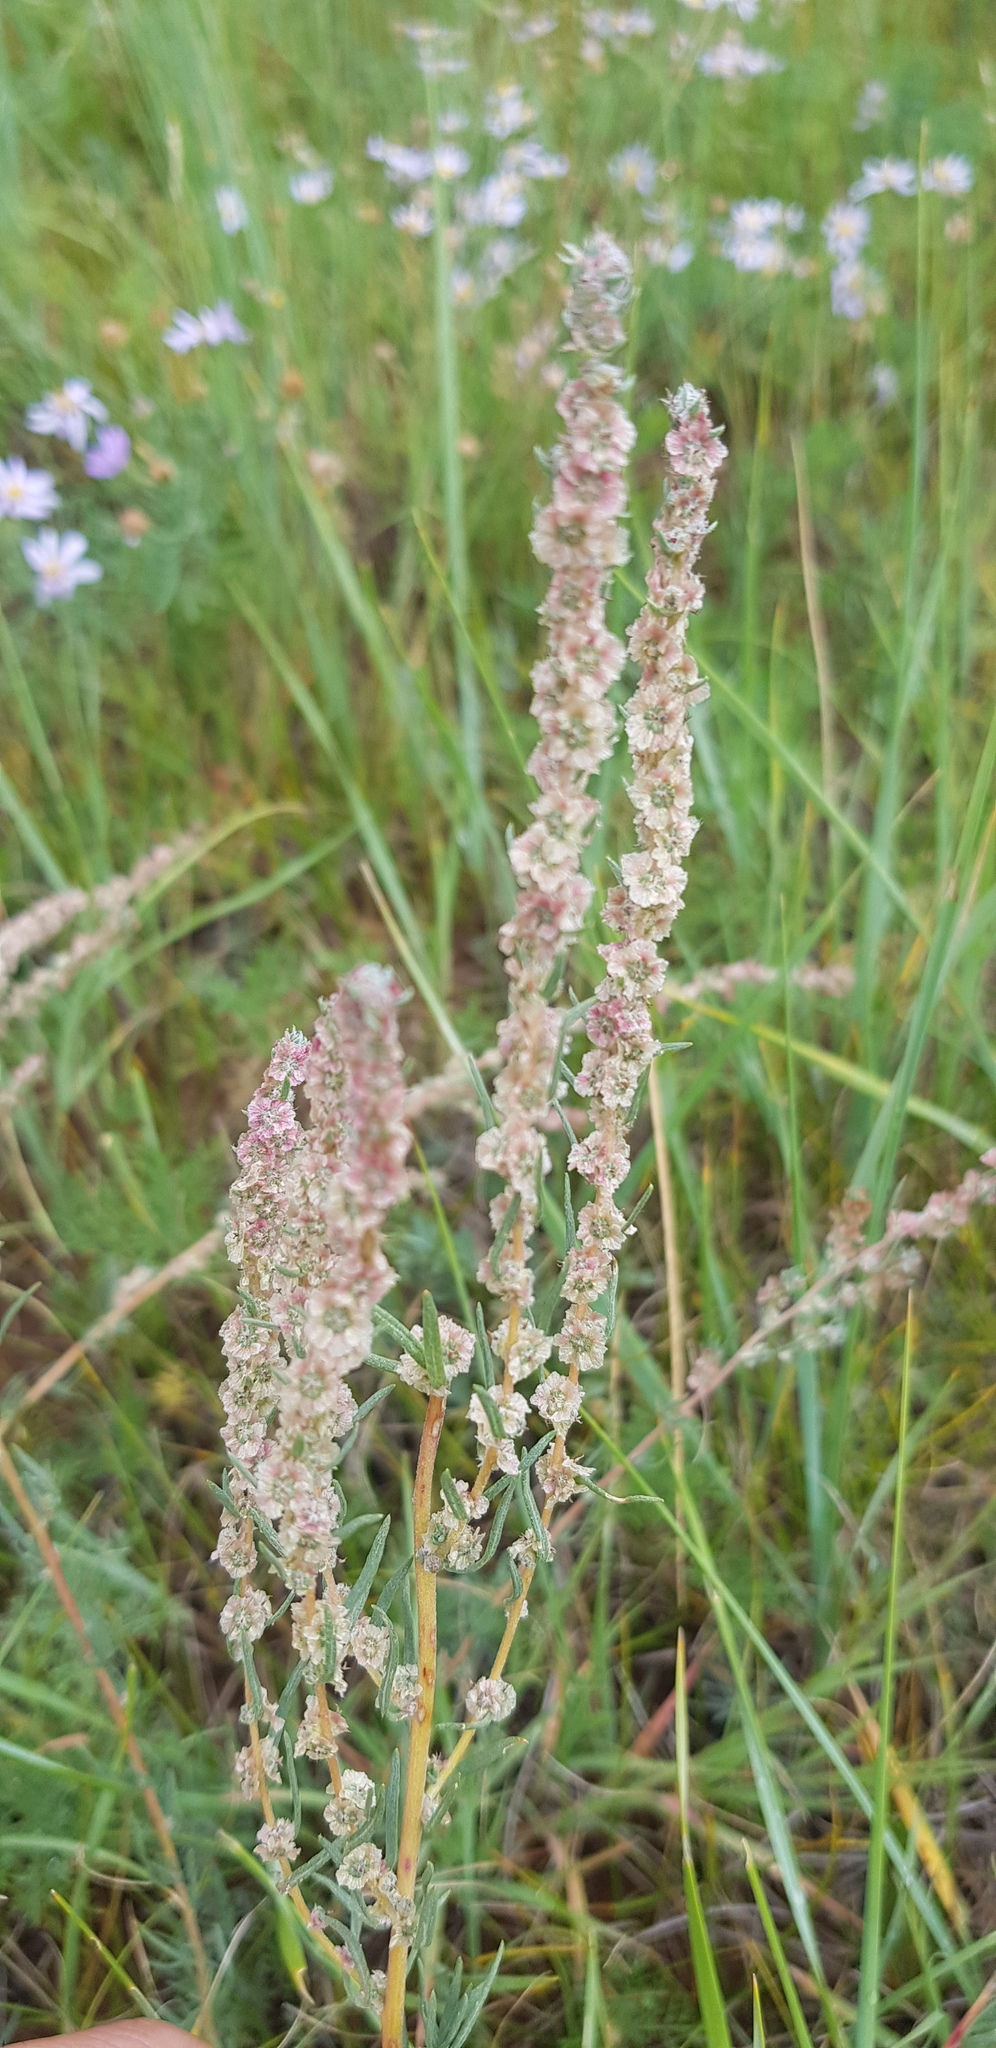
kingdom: Plantae
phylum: Tracheophyta
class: Magnoliopsida
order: Caryophyllales
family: Amaranthaceae
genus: Bassia
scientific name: Bassia prostrata
